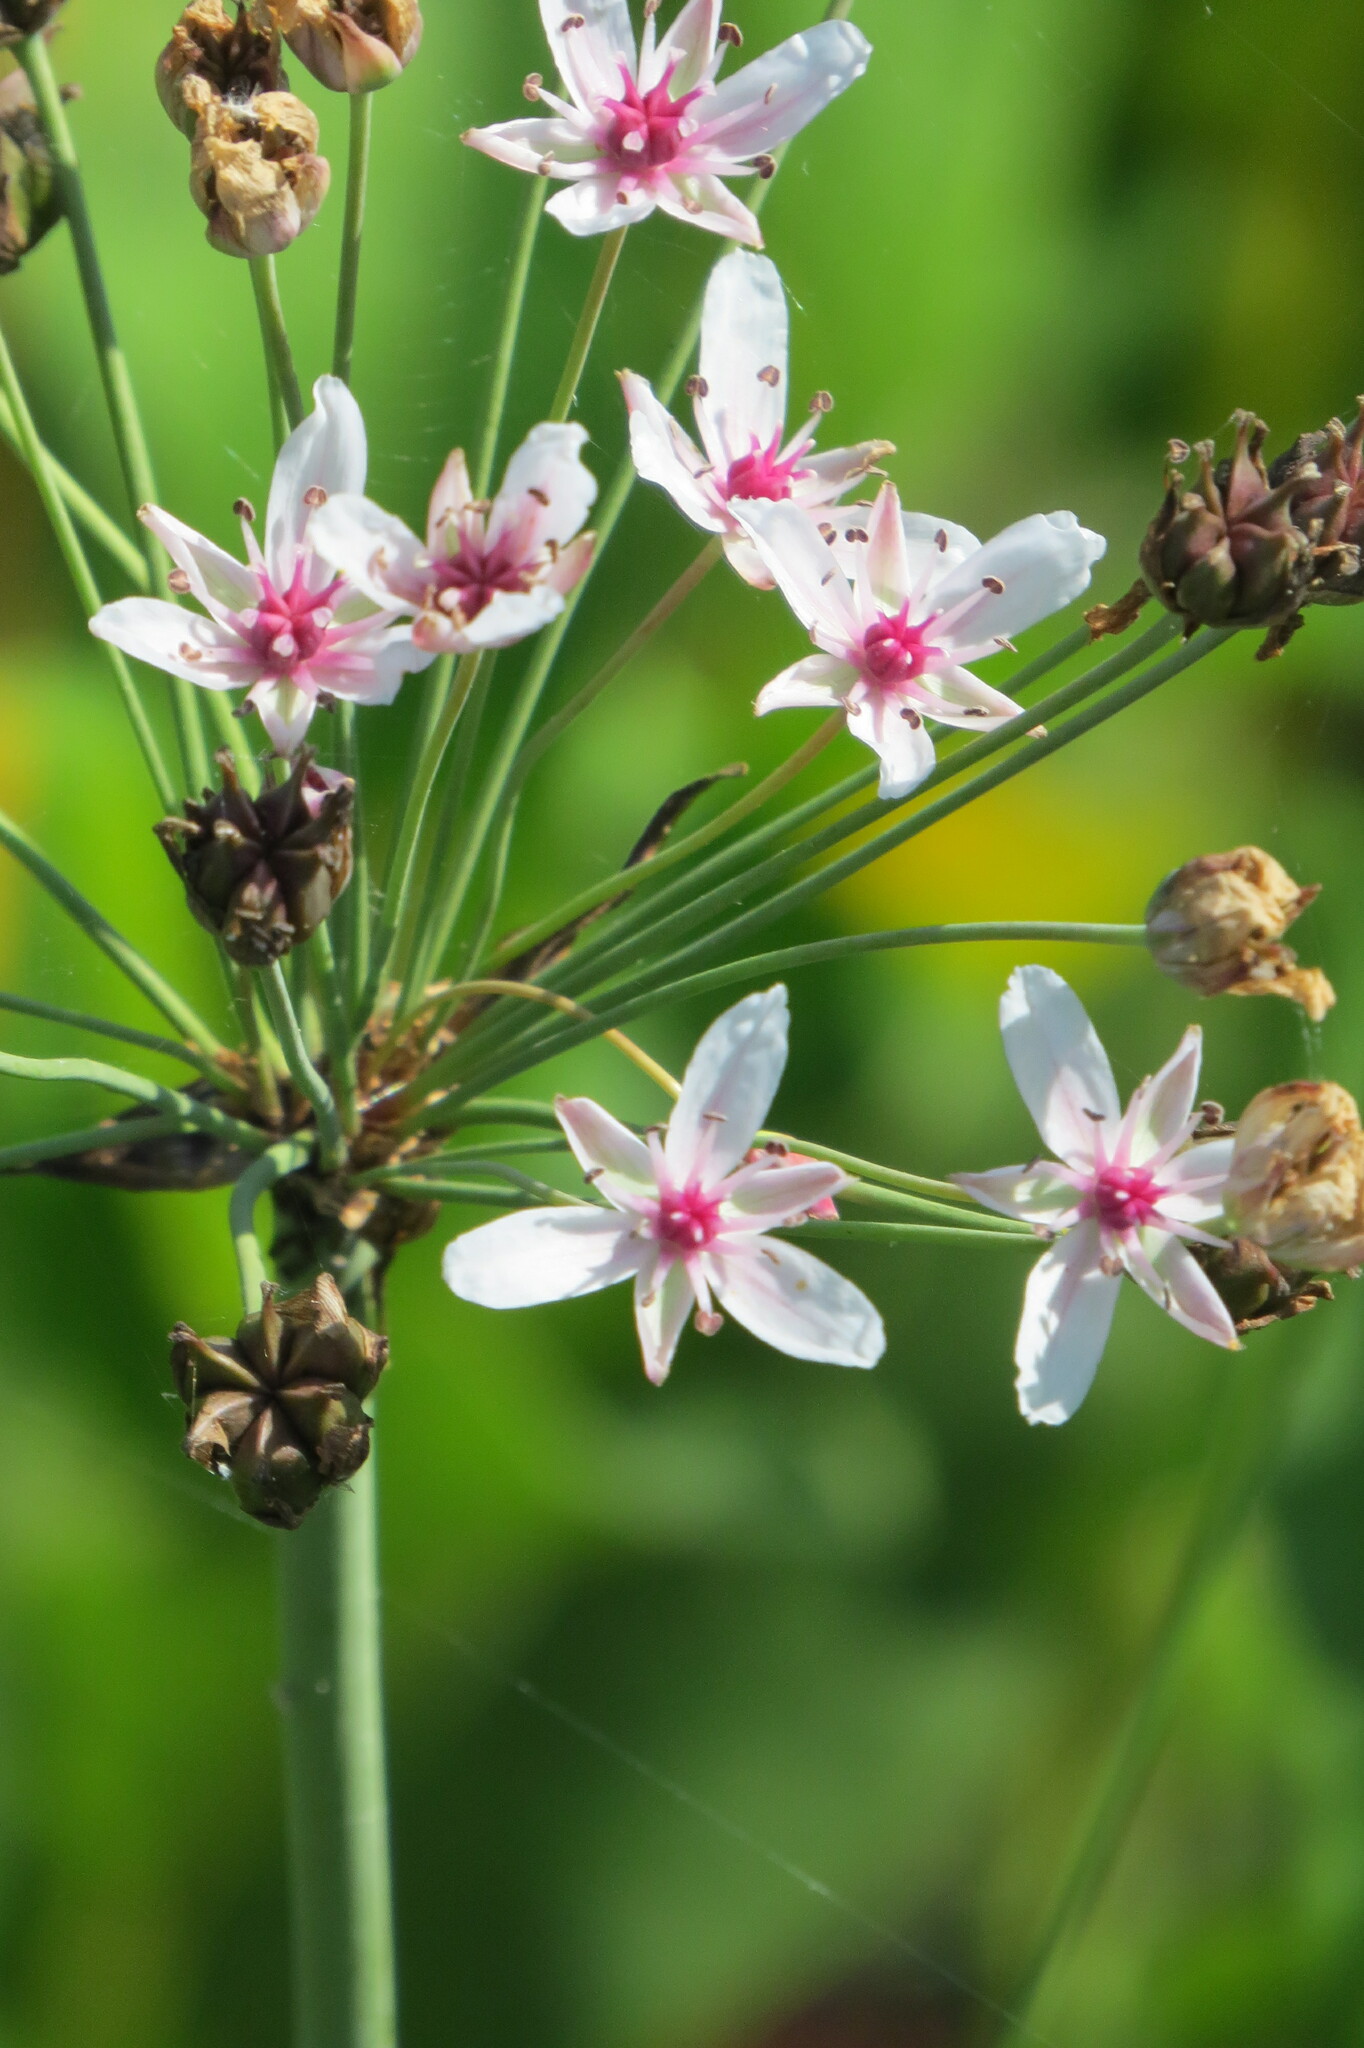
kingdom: Plantae
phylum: Tracheophyta
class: Liliopsida
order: Alismatales
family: Butomaceae
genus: Butomus
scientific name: Butomus umbellatus
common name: Flowering-rush
